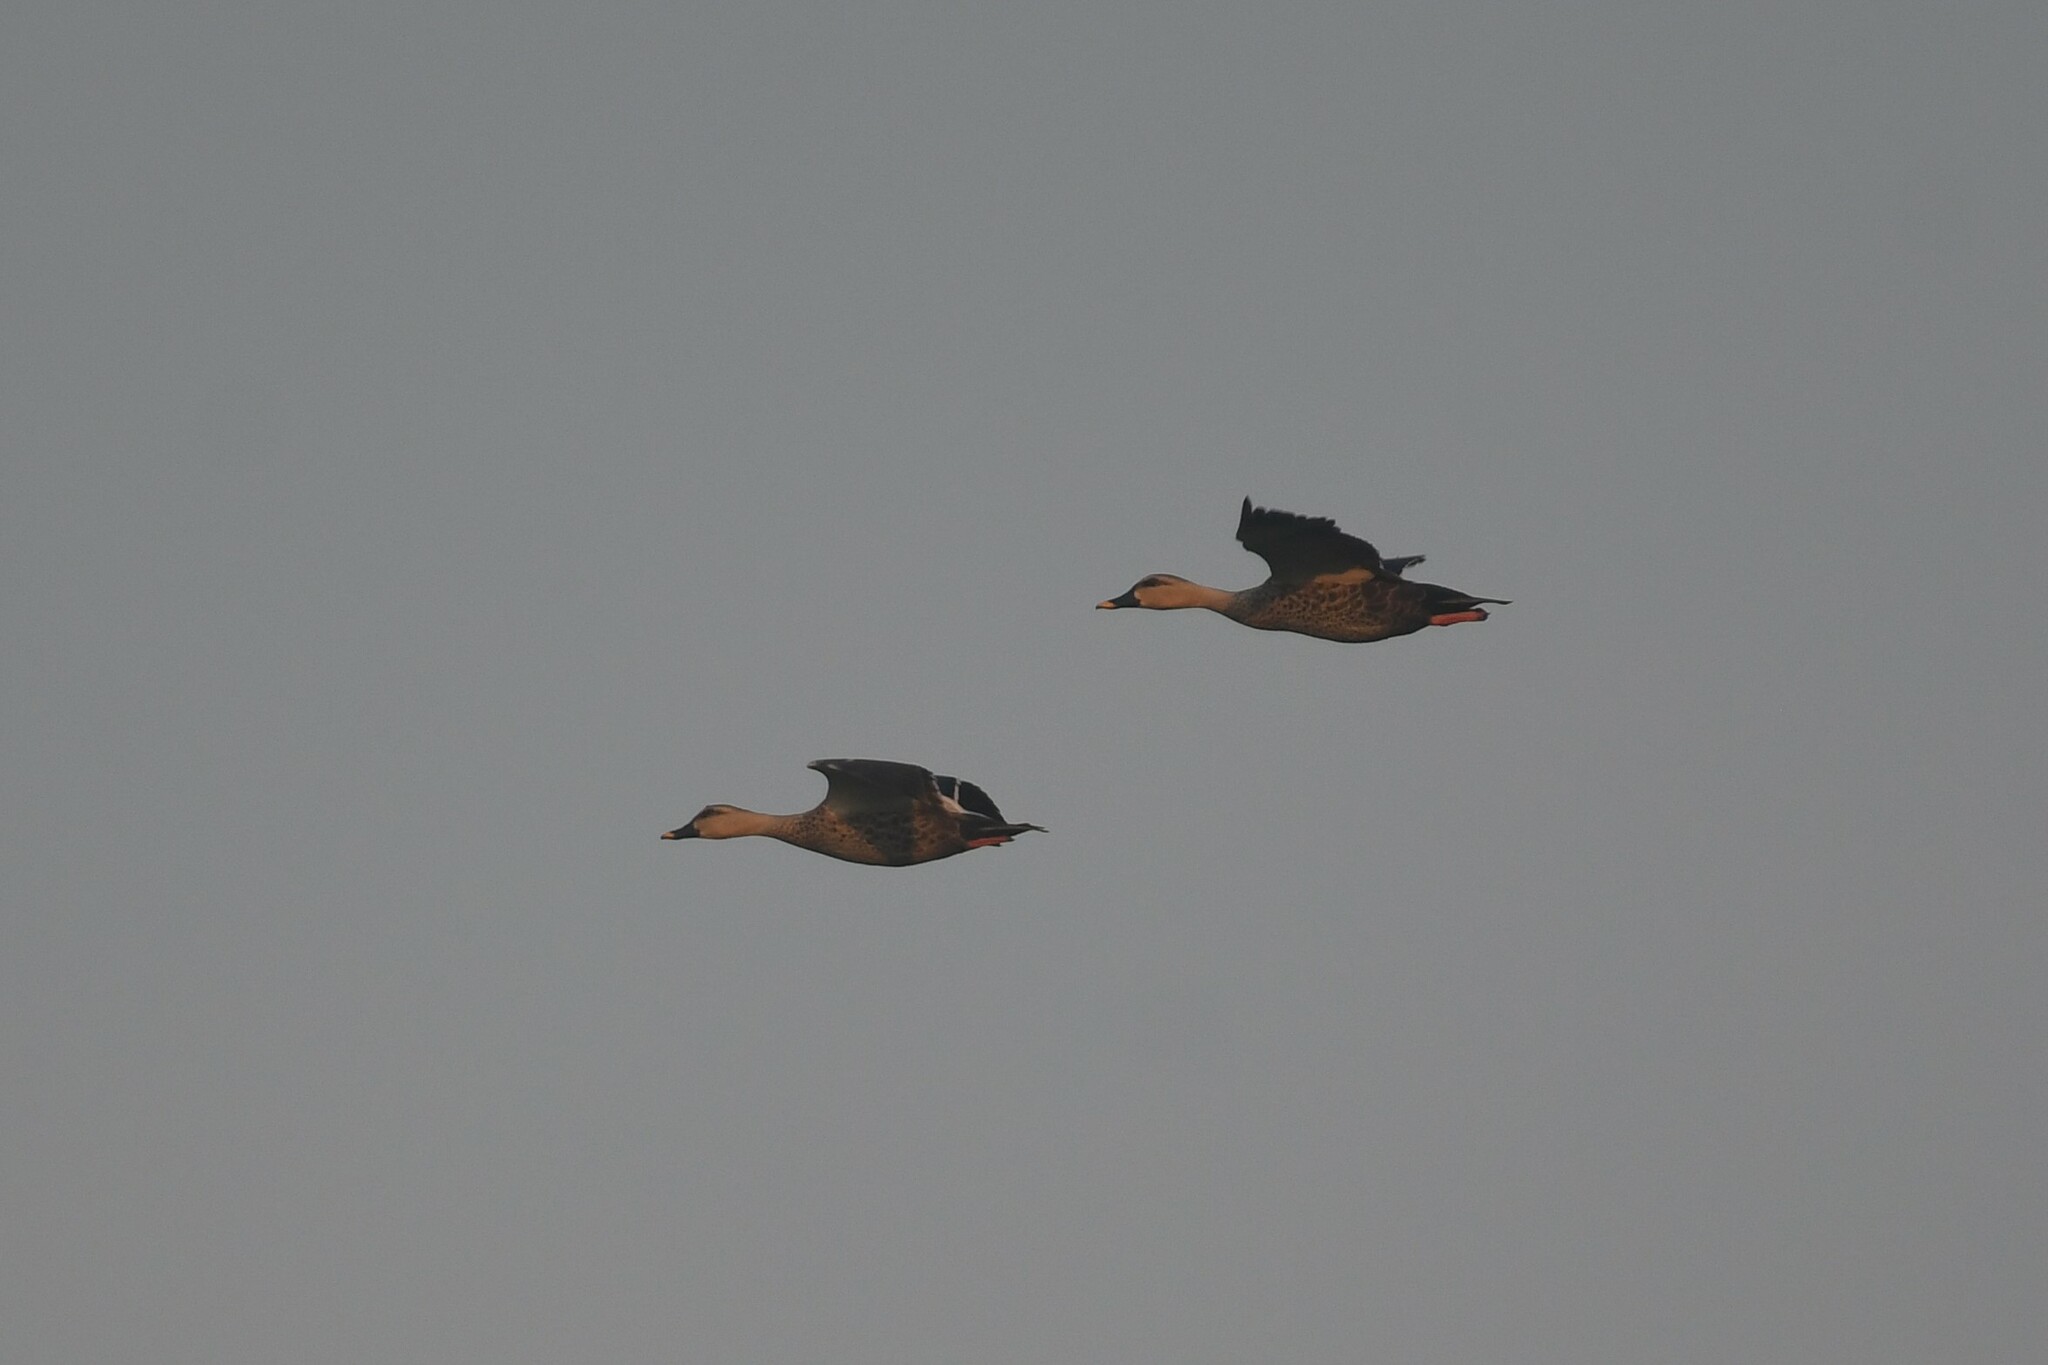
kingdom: Animalia
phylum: Chordata
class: Aves
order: Anseriformes
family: Anatidae
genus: Anas
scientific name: Anas poecilorhyncha
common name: Indian spot-billed duck
